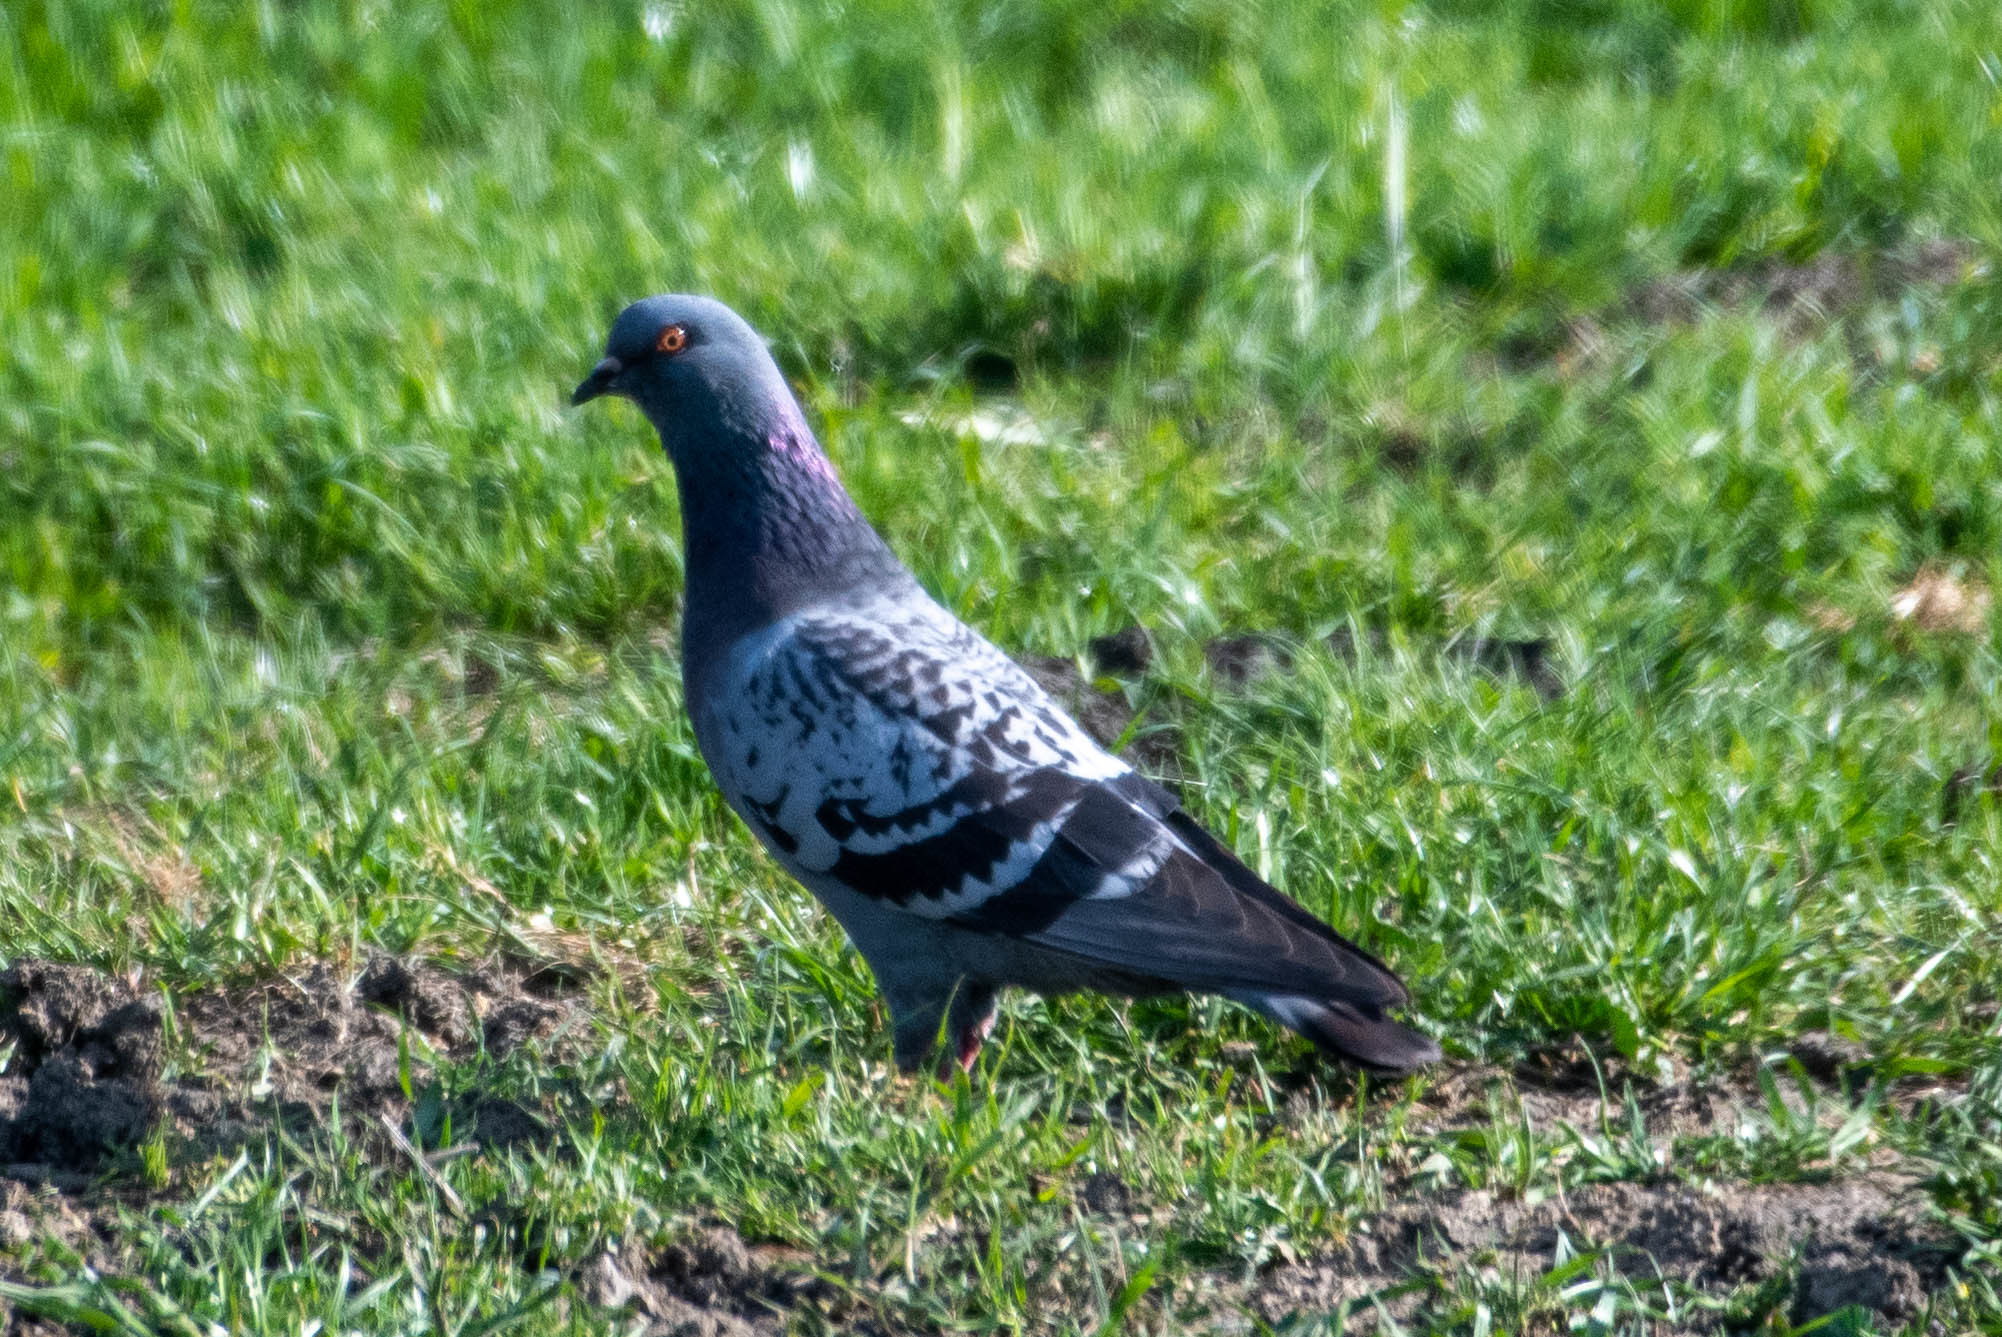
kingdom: Animalia
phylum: Chordata
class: Aves
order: Columbiformes
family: Columbidae
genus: Columba
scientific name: Columba livia
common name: Rock pigeon
